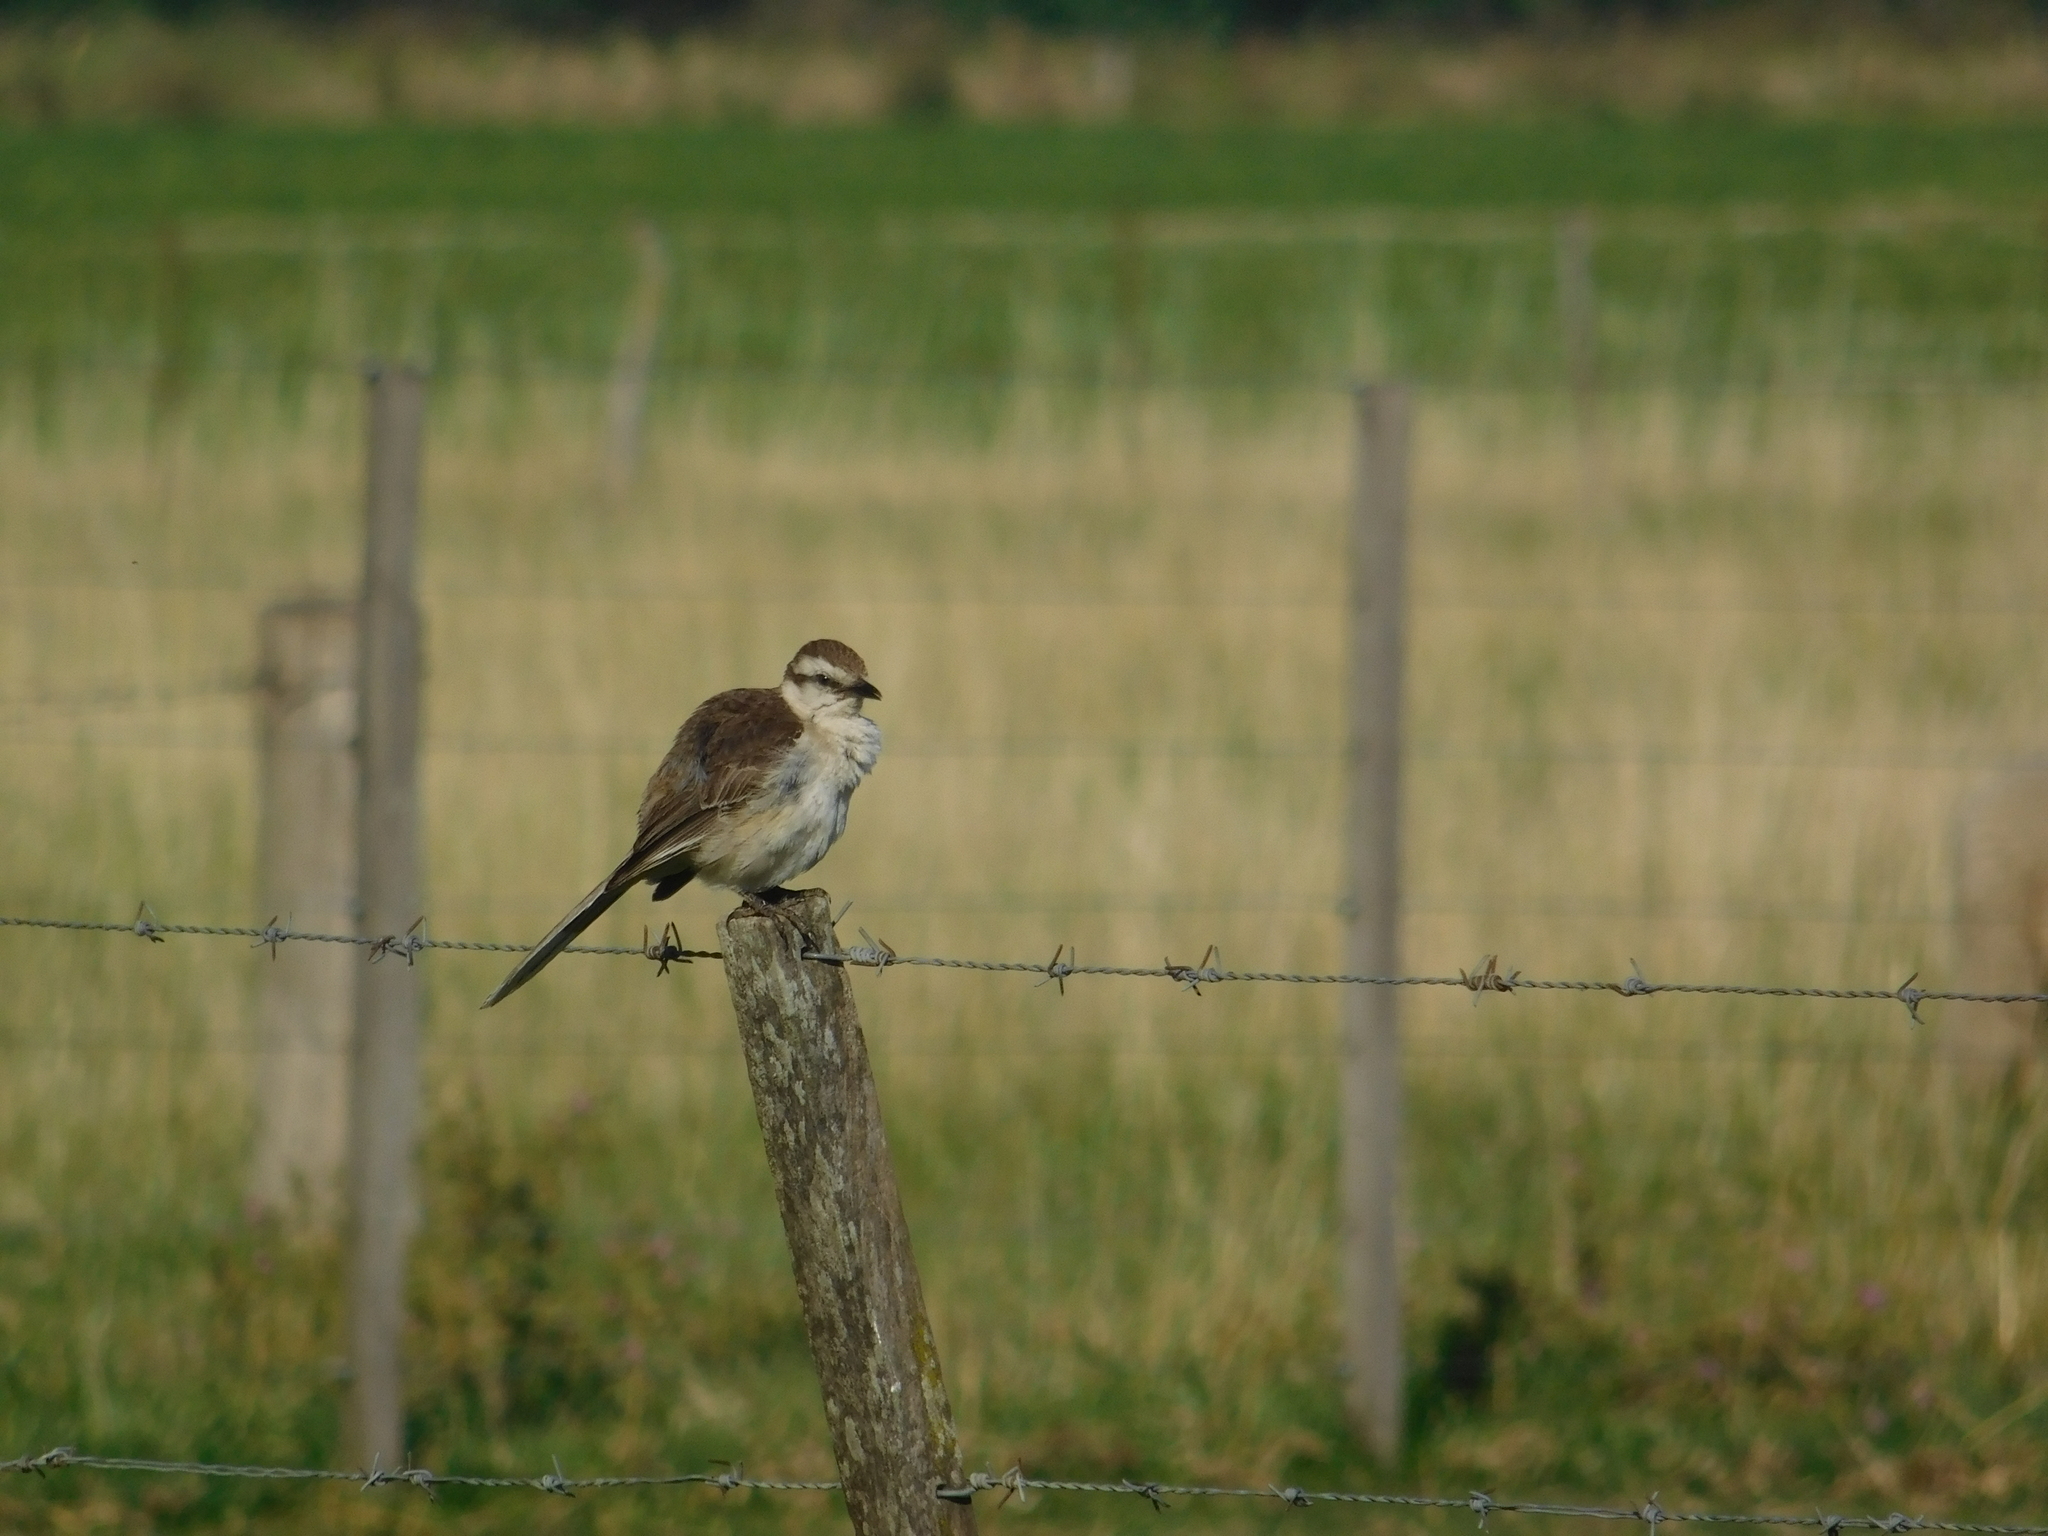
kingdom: Animalia
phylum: Chordata
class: Aves
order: Passeriformes
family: Mimidae
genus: Mimus
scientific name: Mimus saturninus
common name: Chalk-browed mockingbird
